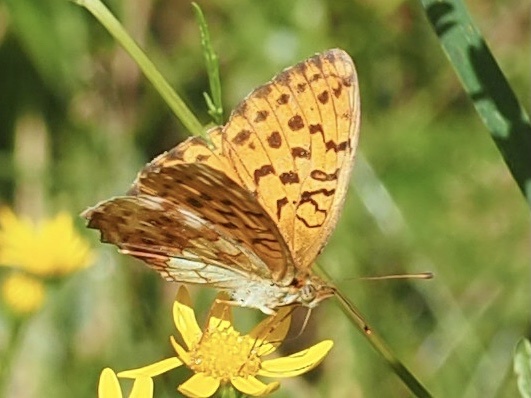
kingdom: Animalia
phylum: Arthropoda
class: Insecta
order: Lepidoptera
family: Nymphalidae
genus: Brenthis
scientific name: Brenthis daphne
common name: Marbled fritillary
